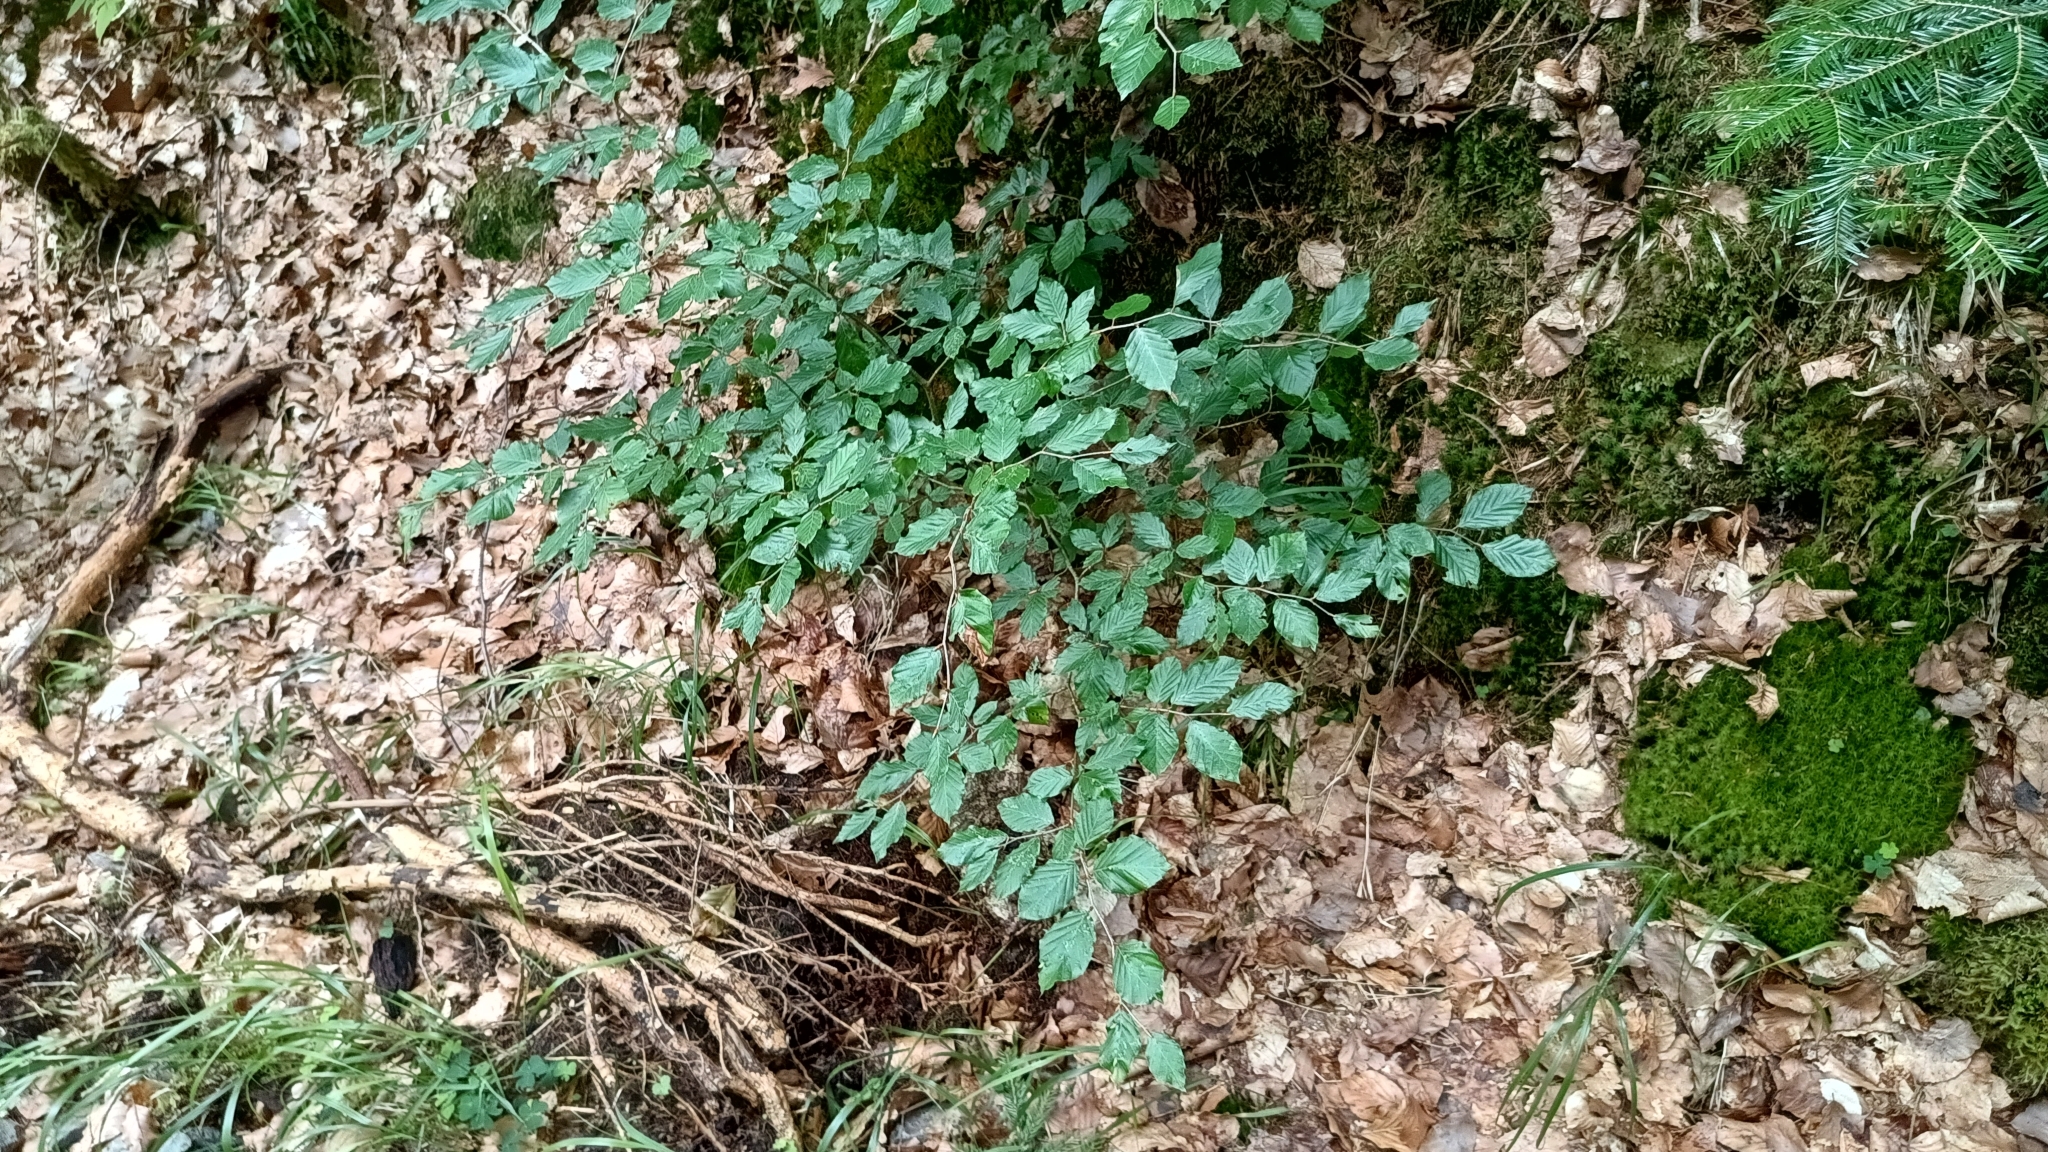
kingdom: Plantae
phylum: Tracheophyta
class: Magnoliopsida
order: Fagales
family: Fagaceae
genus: Fagus
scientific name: Fagus sylvatica
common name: Beech
